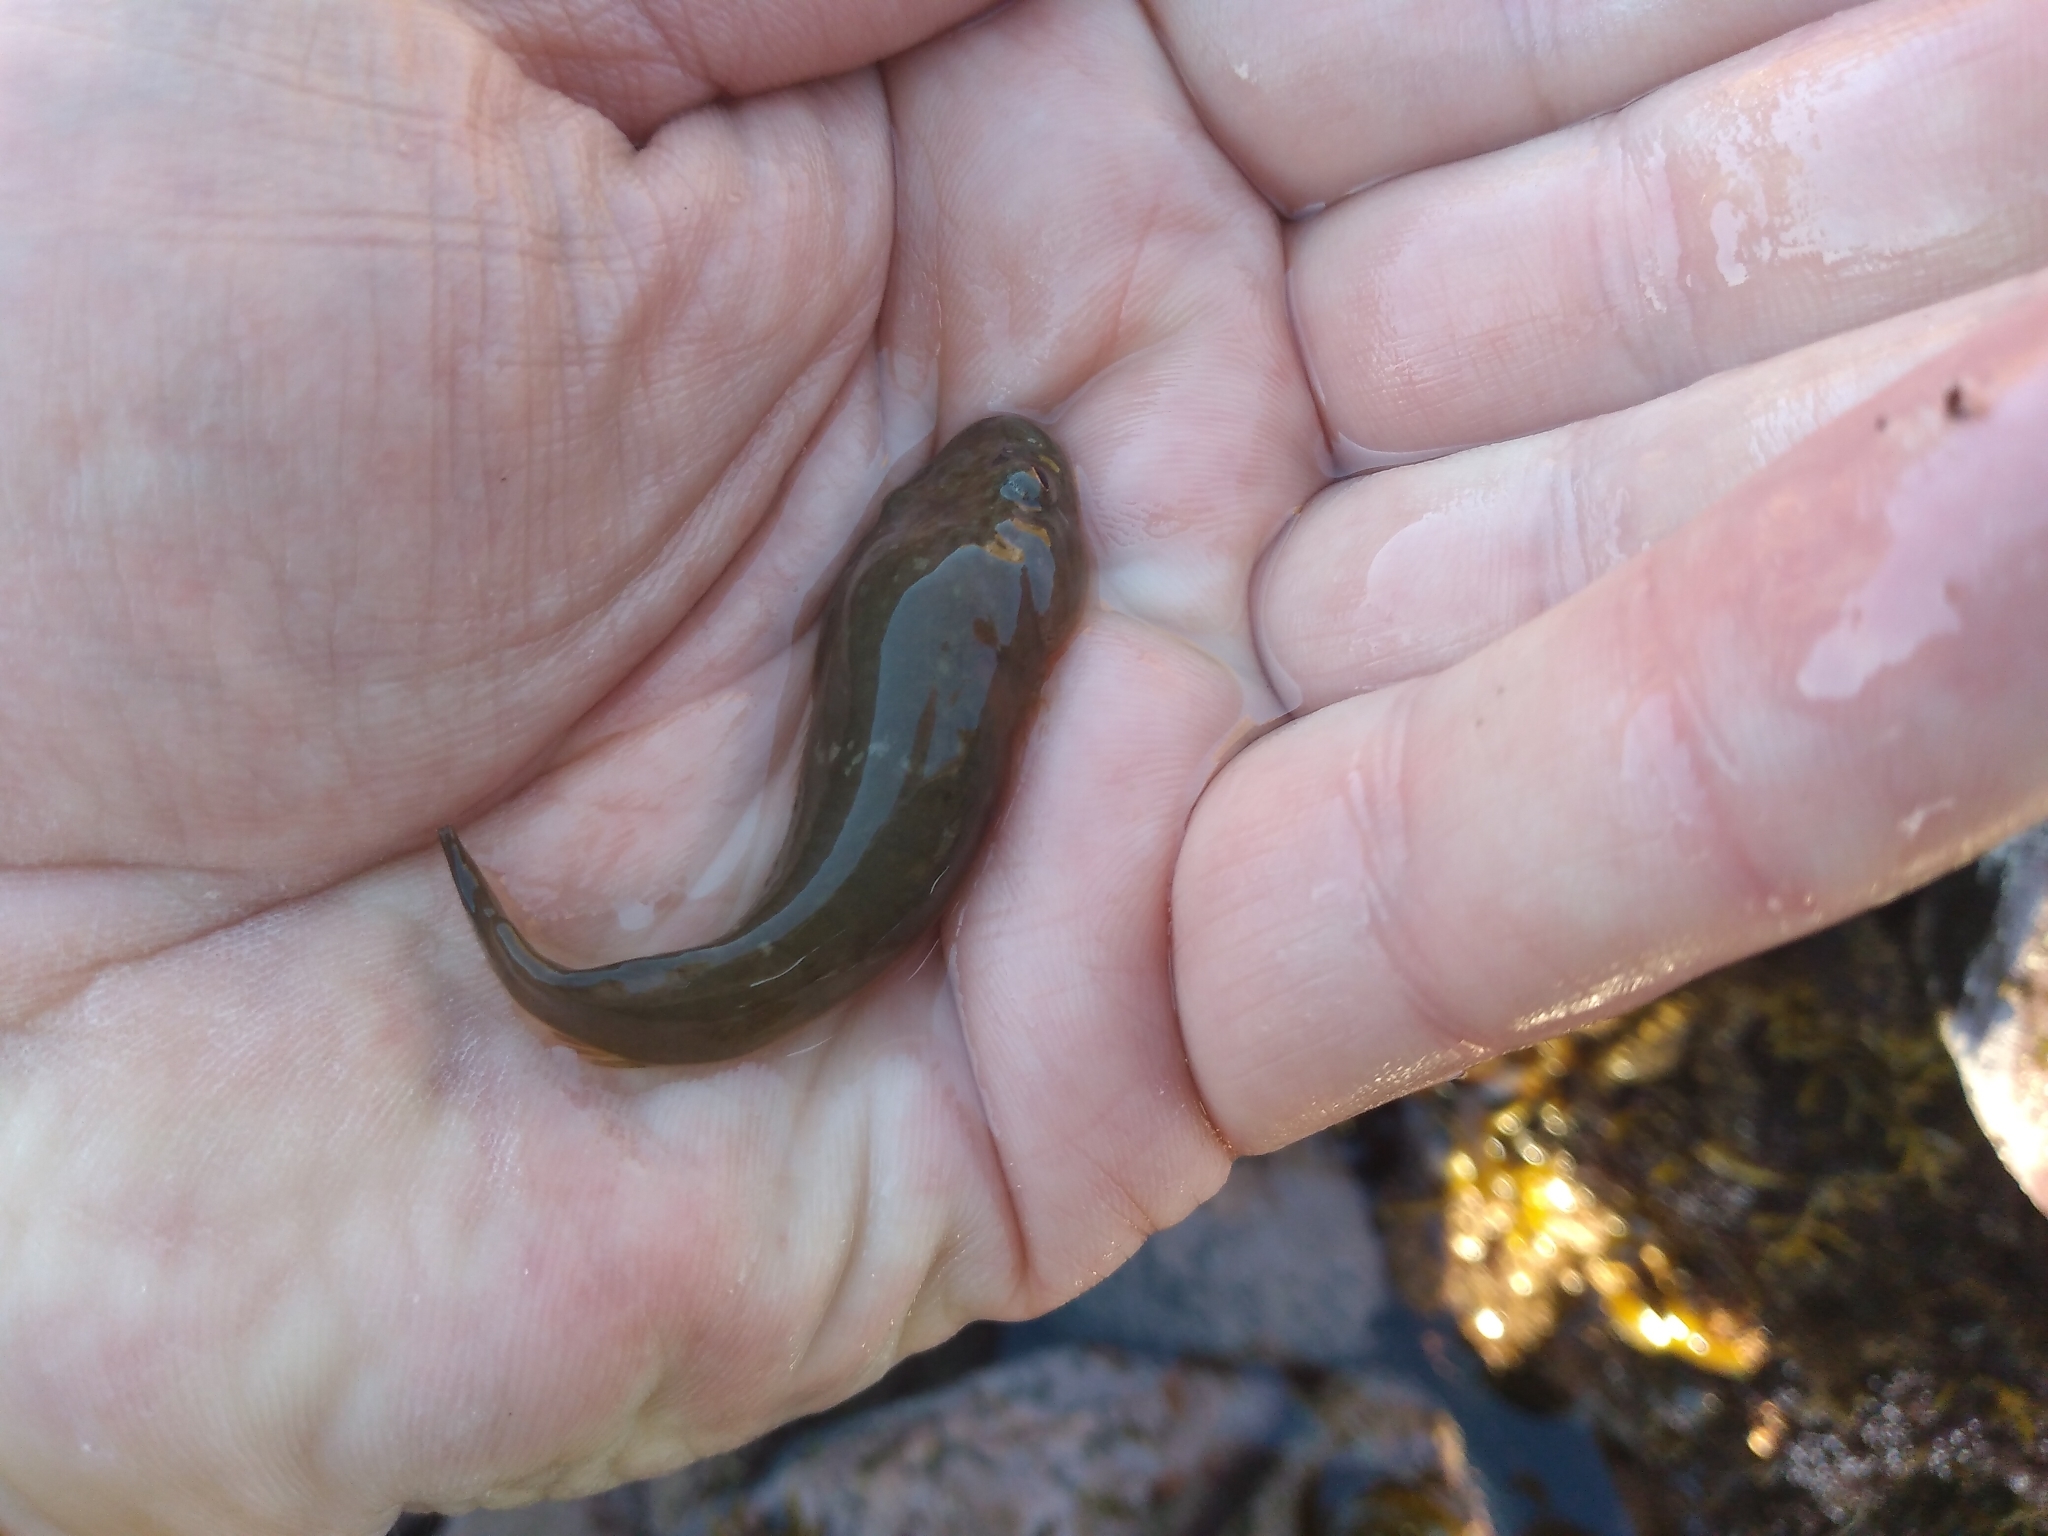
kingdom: Animalia
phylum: Chordata
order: Gobiesociformes
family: Gobiesocidae
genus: Trachelochismus
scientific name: Trachelochismus pinnulatus
